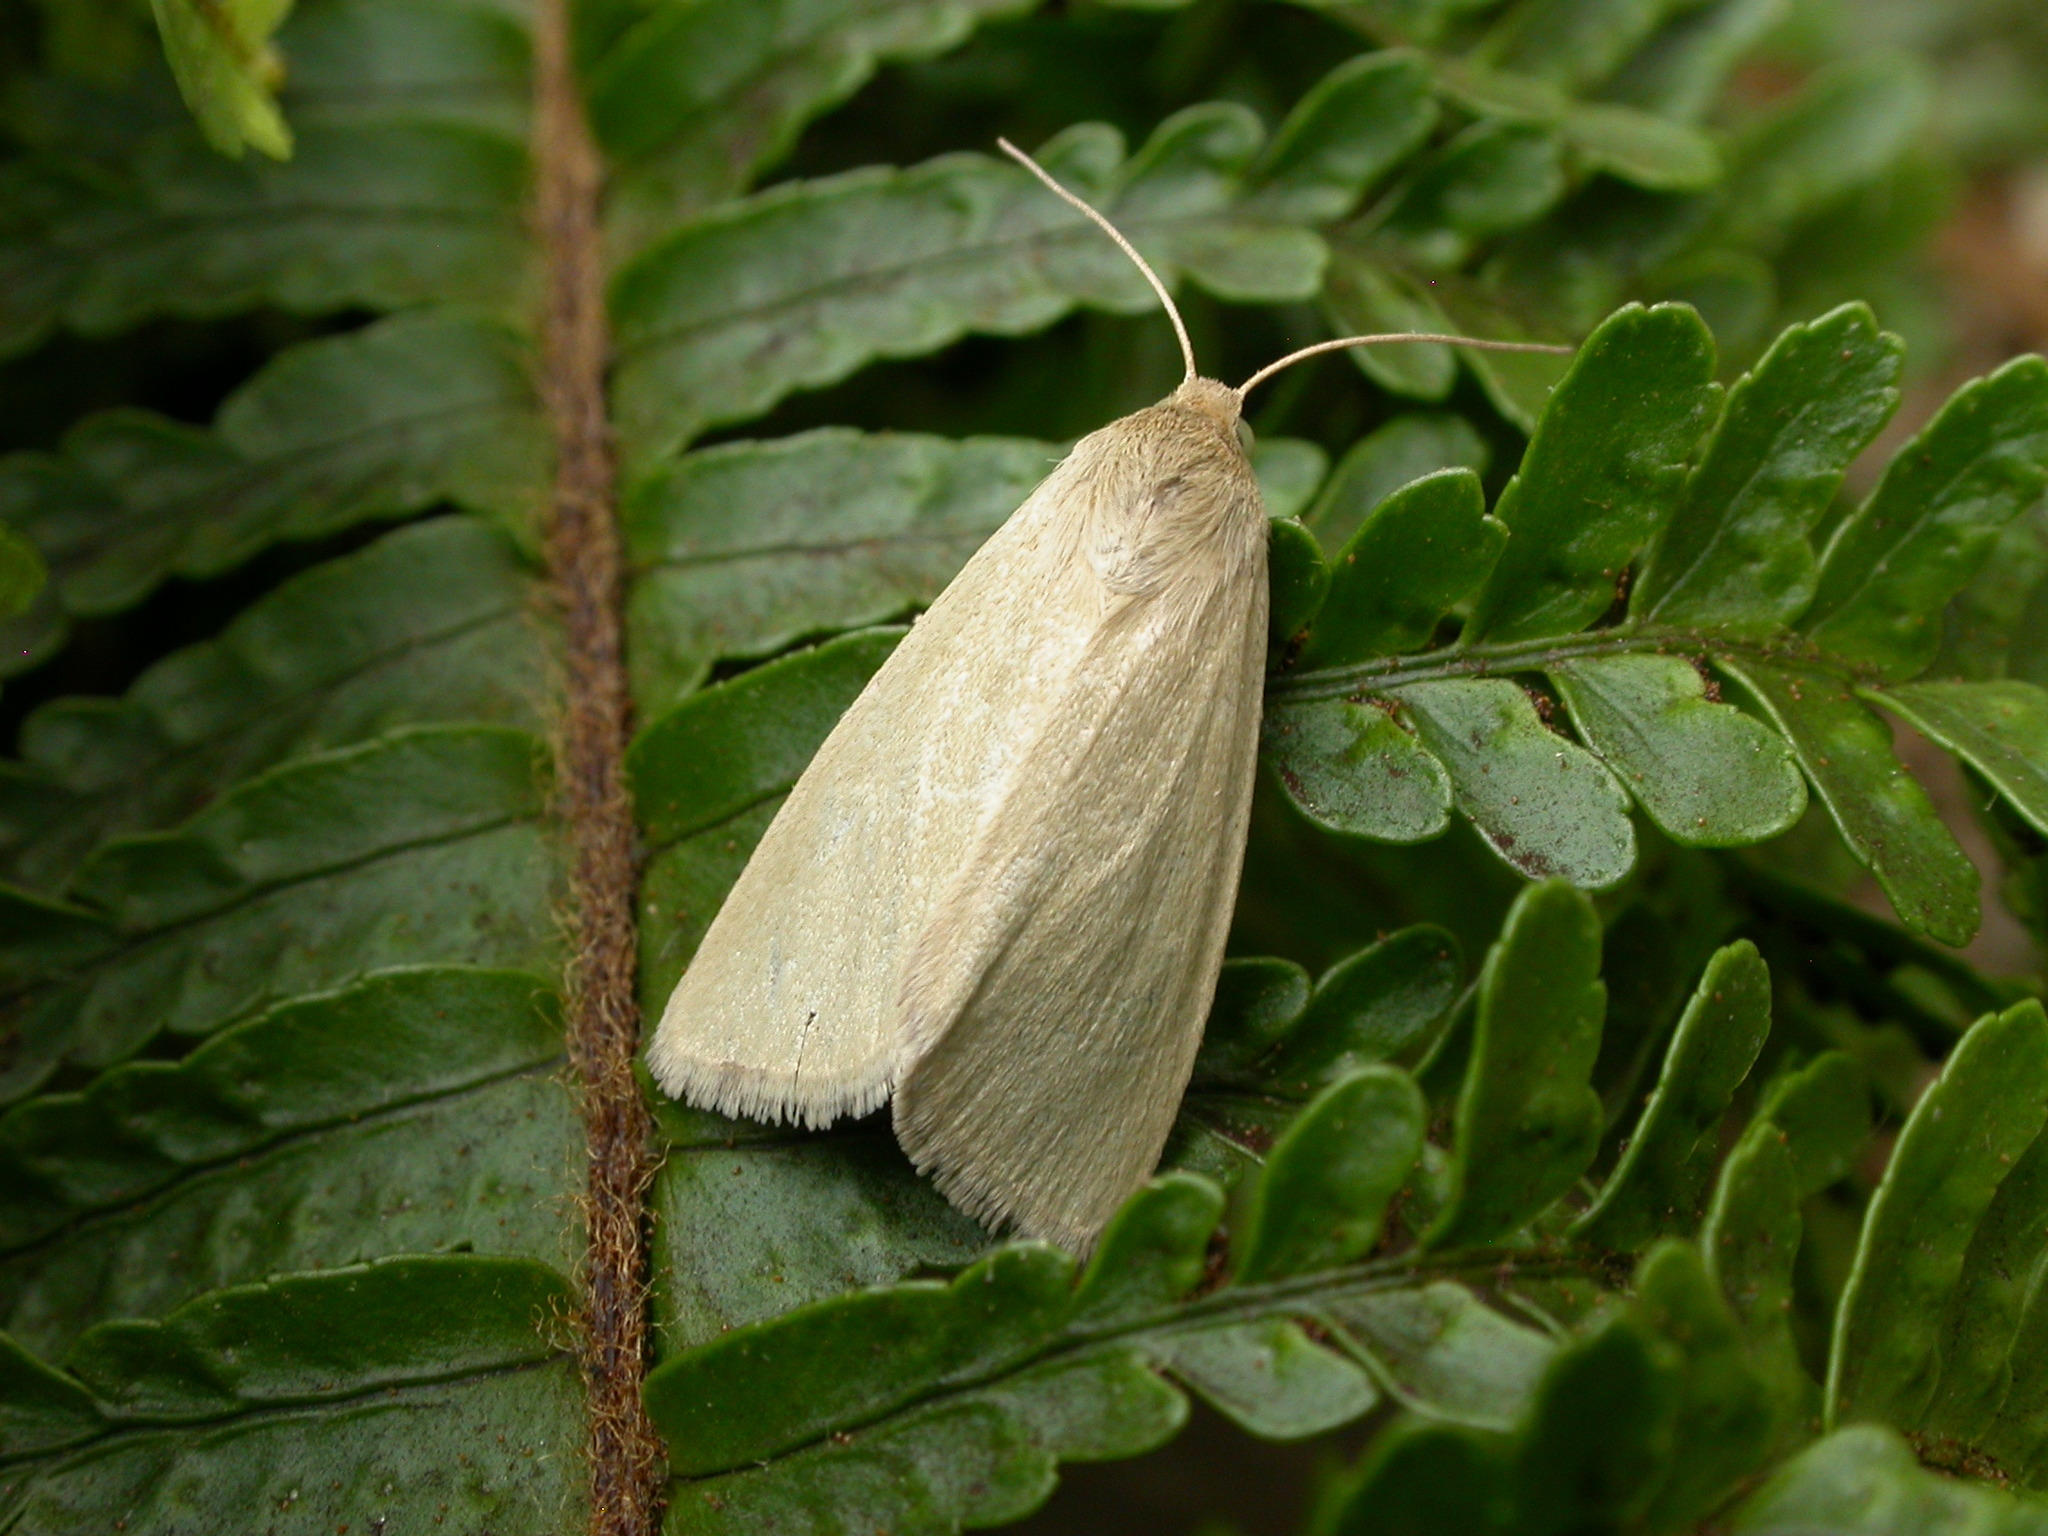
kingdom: Animalia
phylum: Arthropoda
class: Insecta
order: Lepidoptera
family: Noctuidae
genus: Heliocheilus
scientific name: Heliocheilus moribunda
